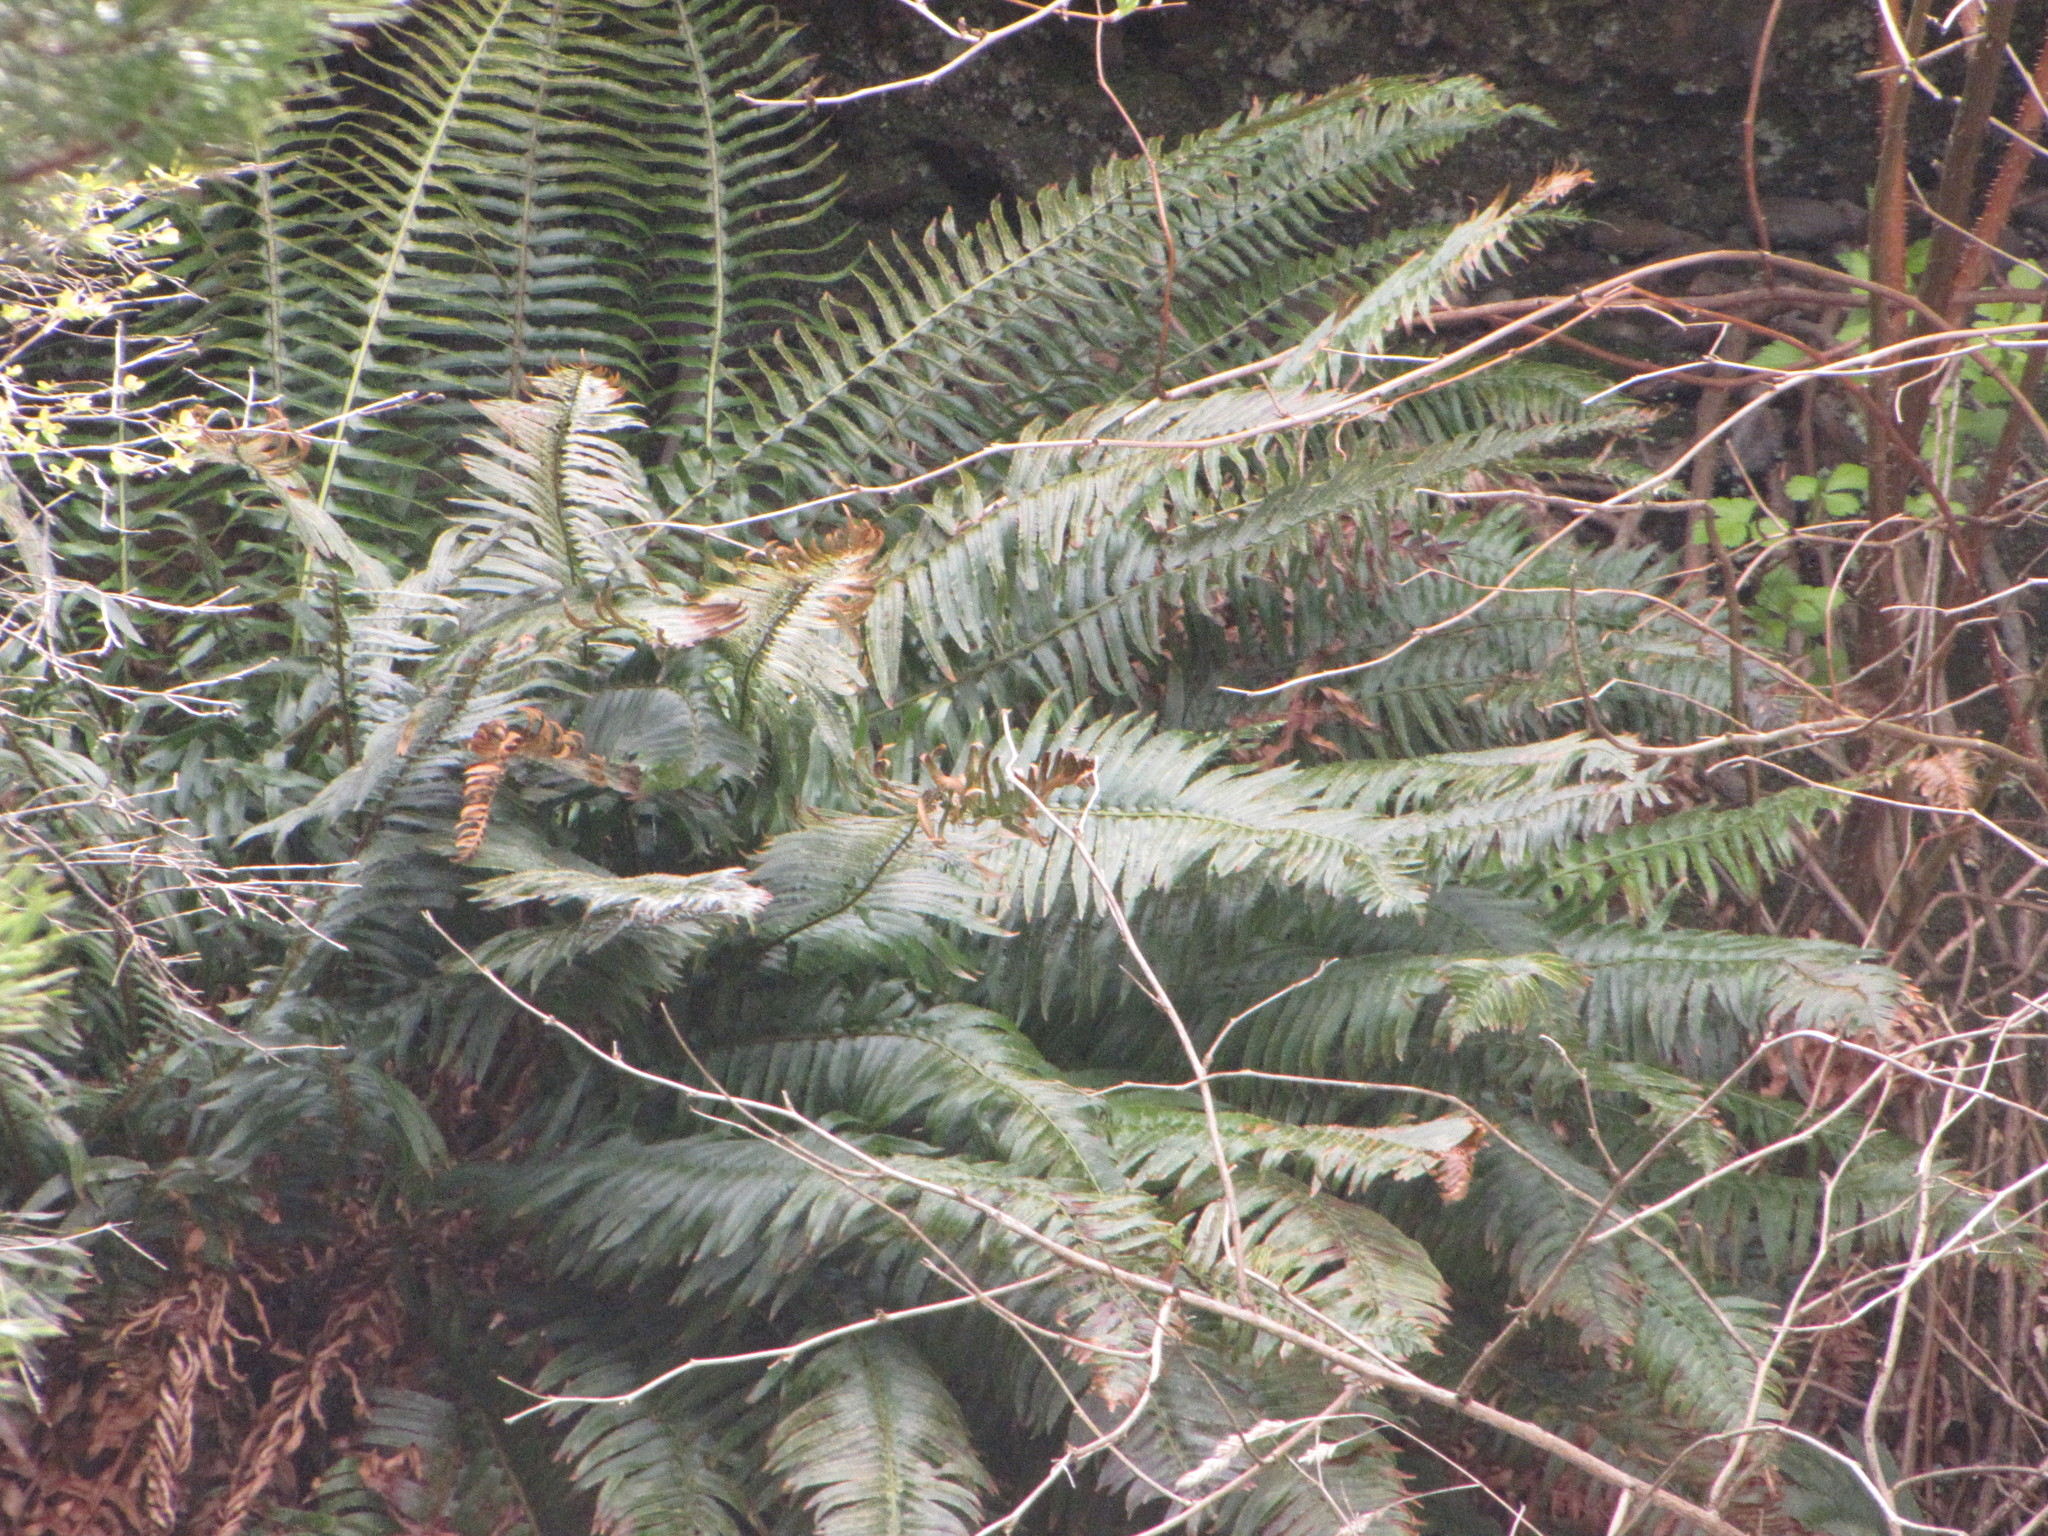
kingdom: Plantae
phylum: Tracheophyta
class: Polypodiopsida
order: Polypodiales
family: Dryopteridaceae
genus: Polystichum
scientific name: Polystichum munitum
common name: Western sword-fern
